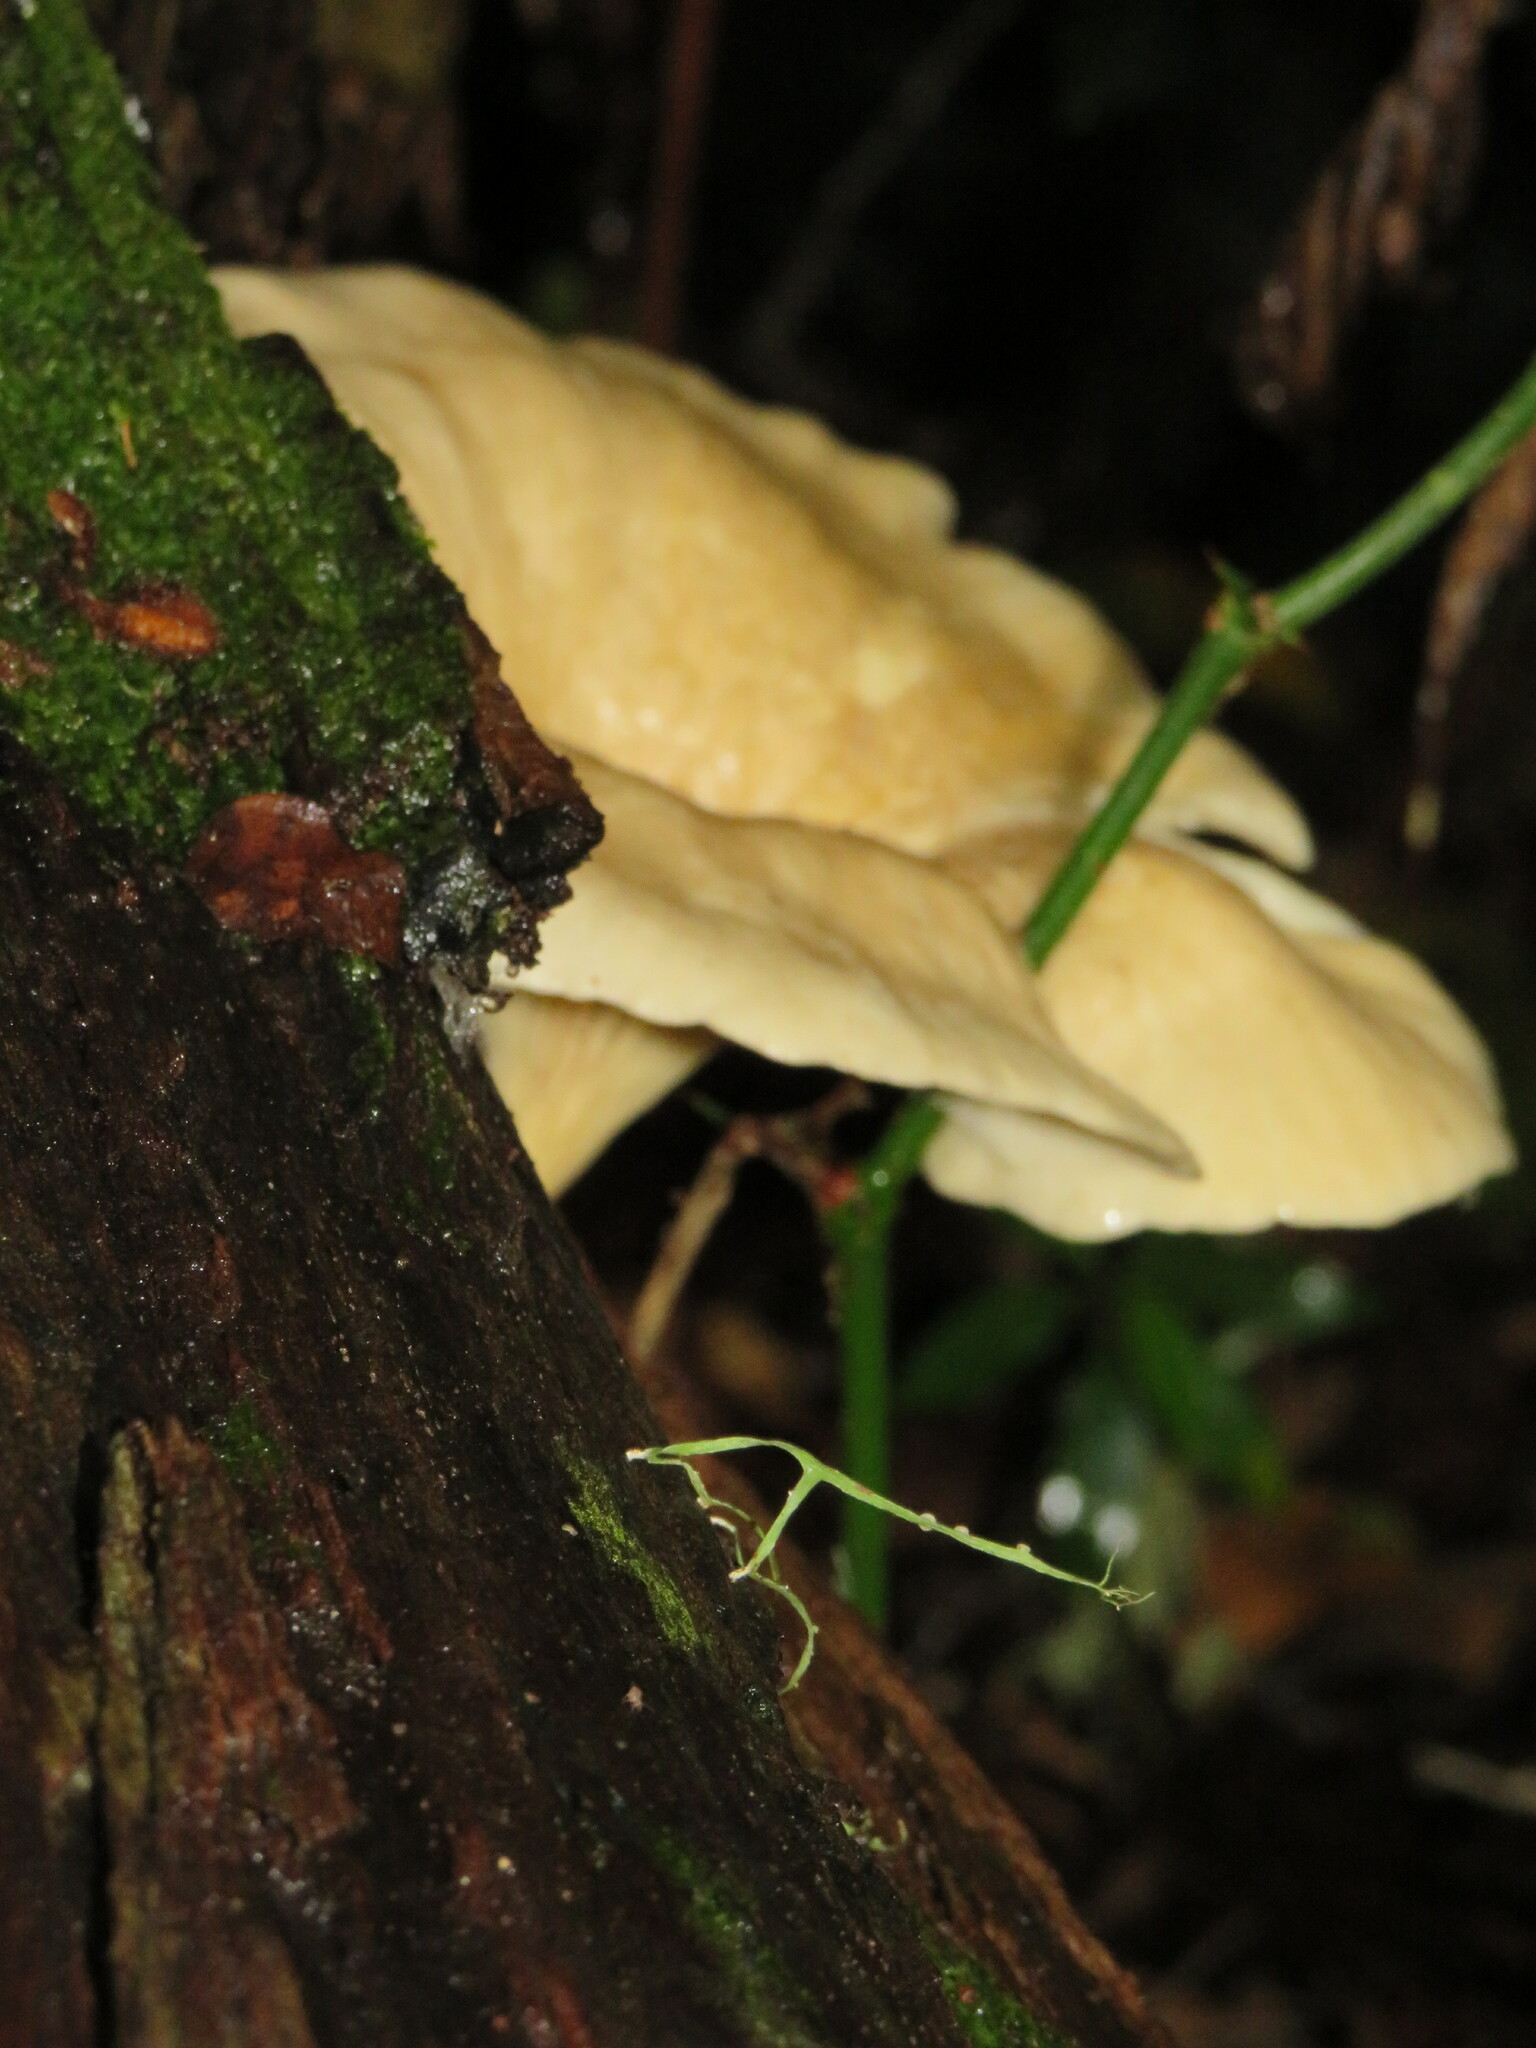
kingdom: Fungi
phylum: Basidiomycota
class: Agaricomycetes
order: Polyporales
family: Polyporaceae
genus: Lentinus
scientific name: Lentinus sajor-caju
